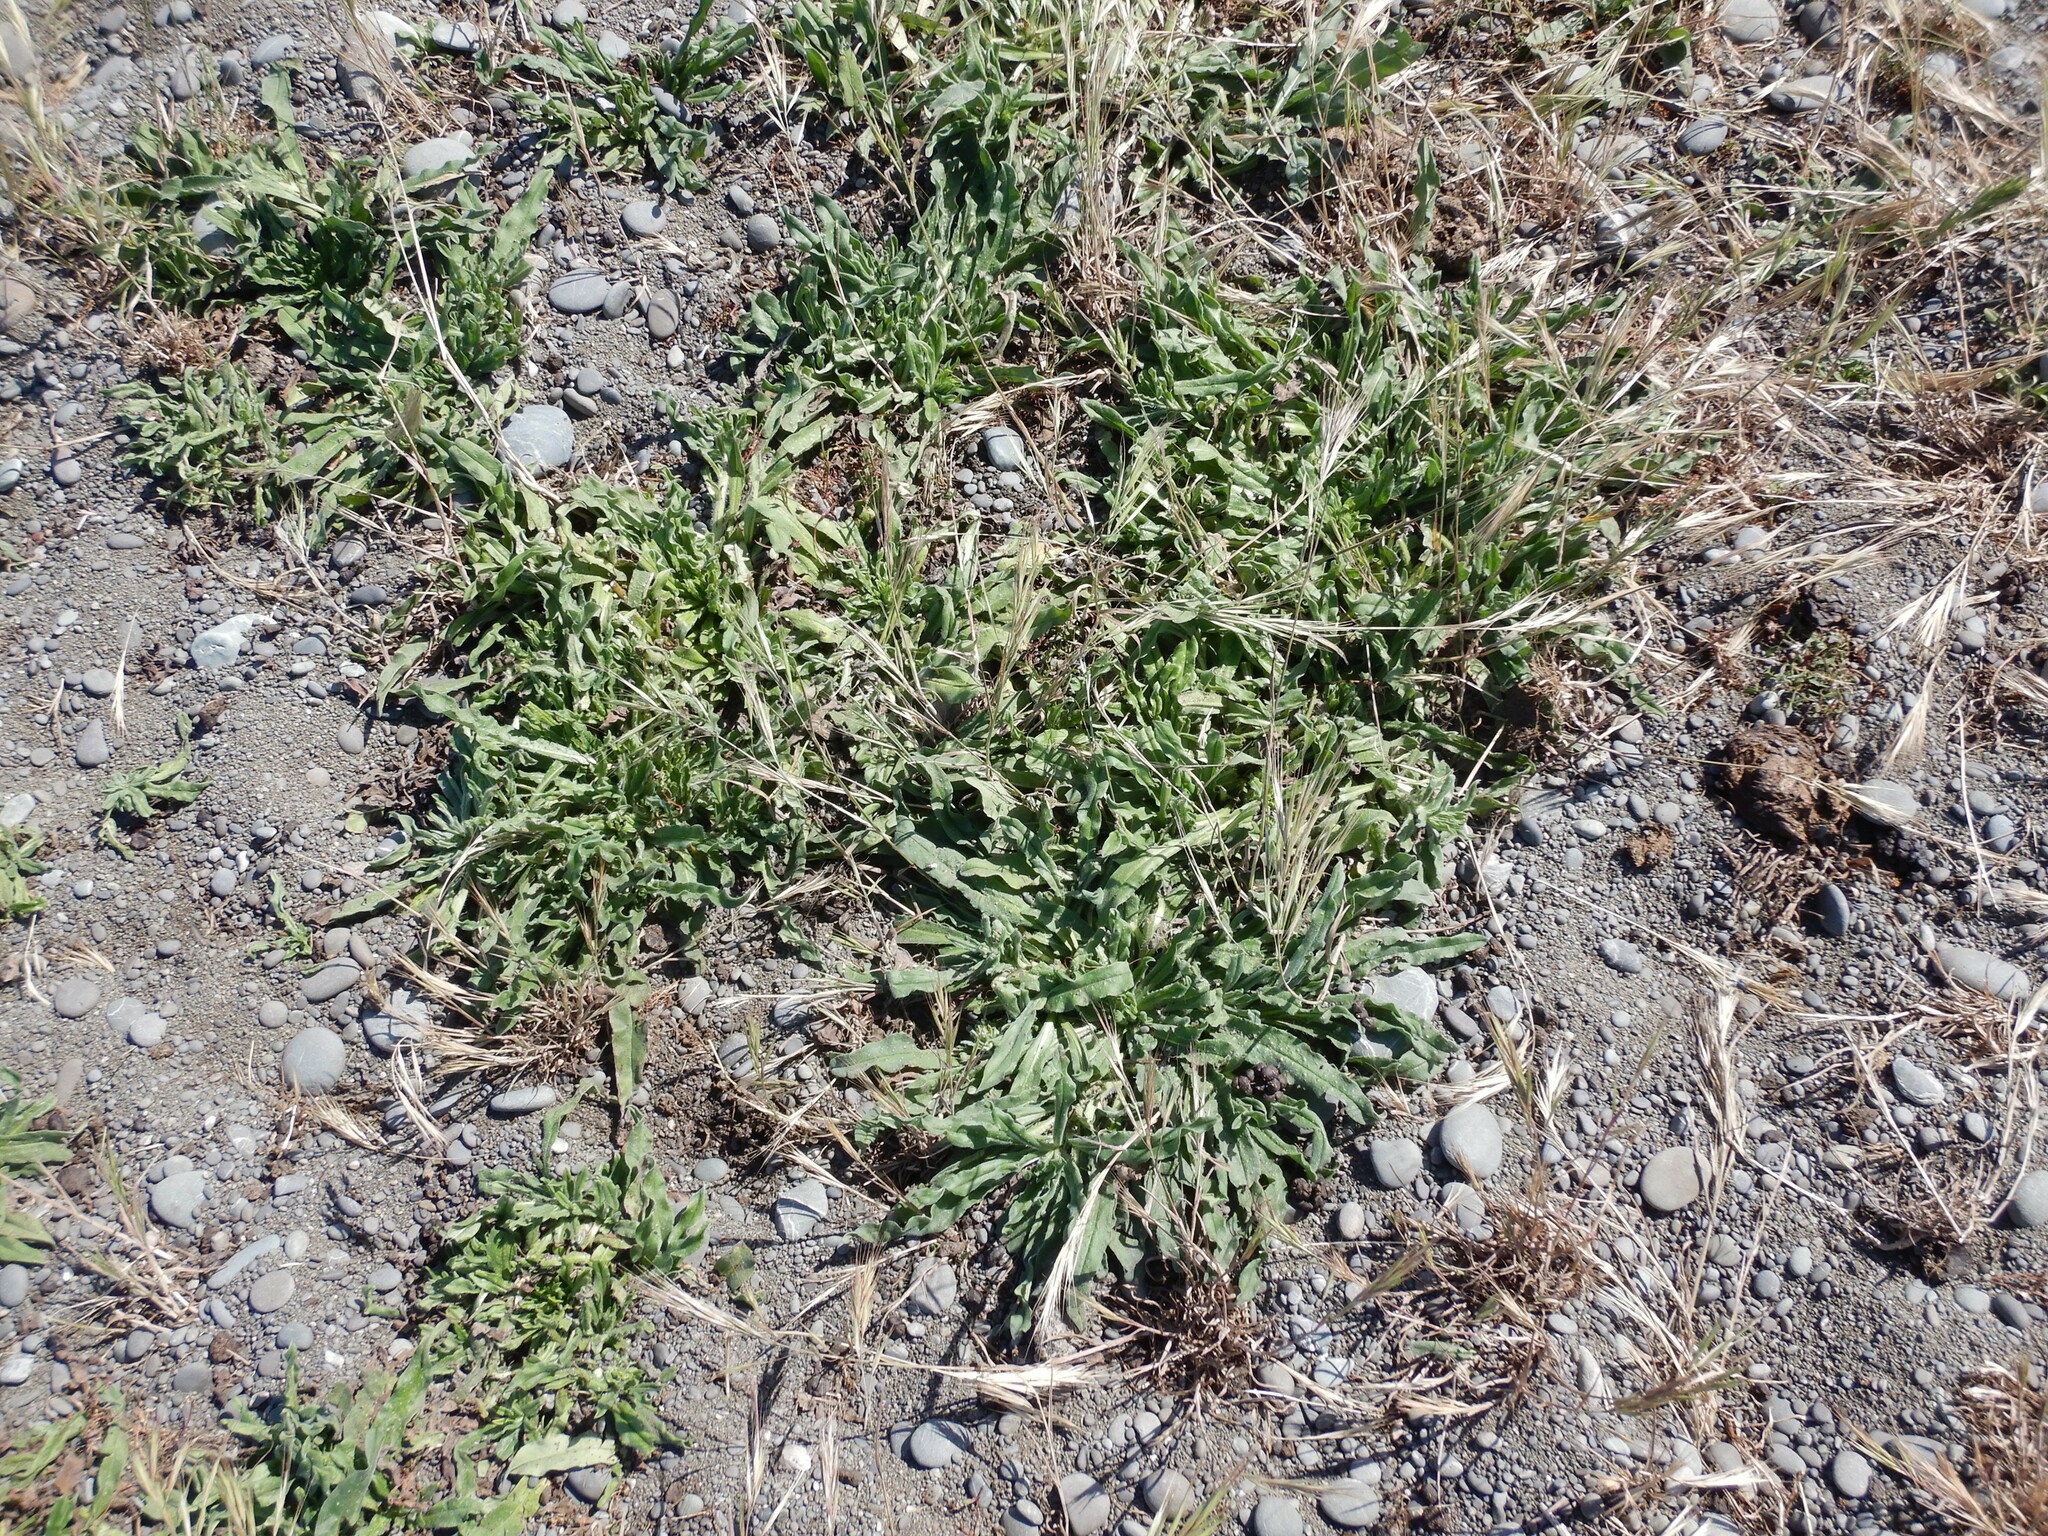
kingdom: Plantae
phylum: Tracheophyta
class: Magnoliopsida
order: Boraginales
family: Boraginaceae
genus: Echium
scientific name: Echium vulgare
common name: Common viper's bugloss
